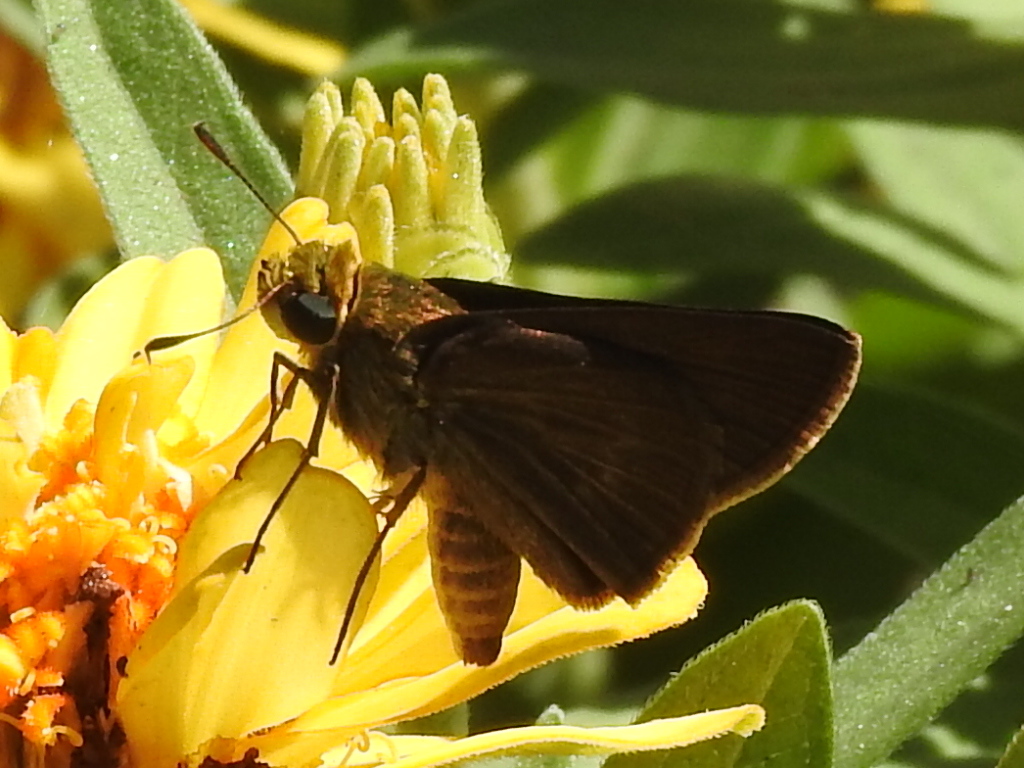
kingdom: Animalia
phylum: Arthropoda
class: Insecta
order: Lepidoptera
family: Hesperiidae
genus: Euphyes
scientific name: Euphyes vestris
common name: Dun skipper
